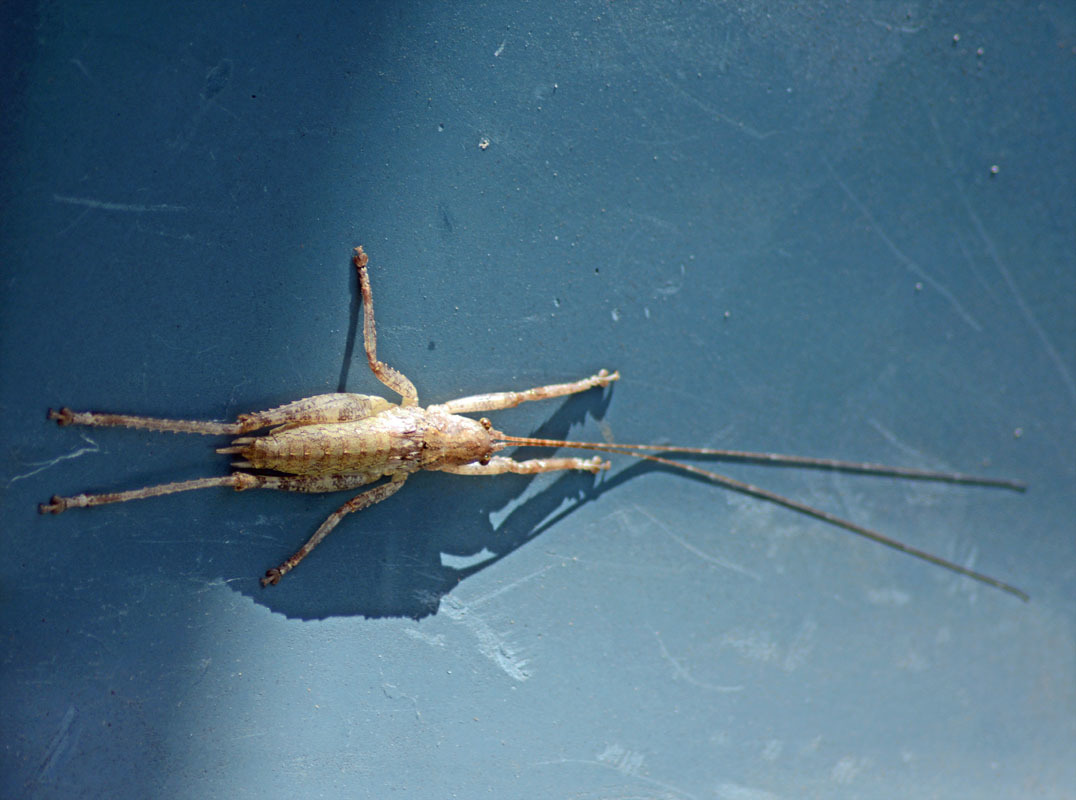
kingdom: Animalia
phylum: Arthropoda
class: Insecta
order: Orthoptera
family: Tettigoniidae
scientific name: Tettigoniidae
